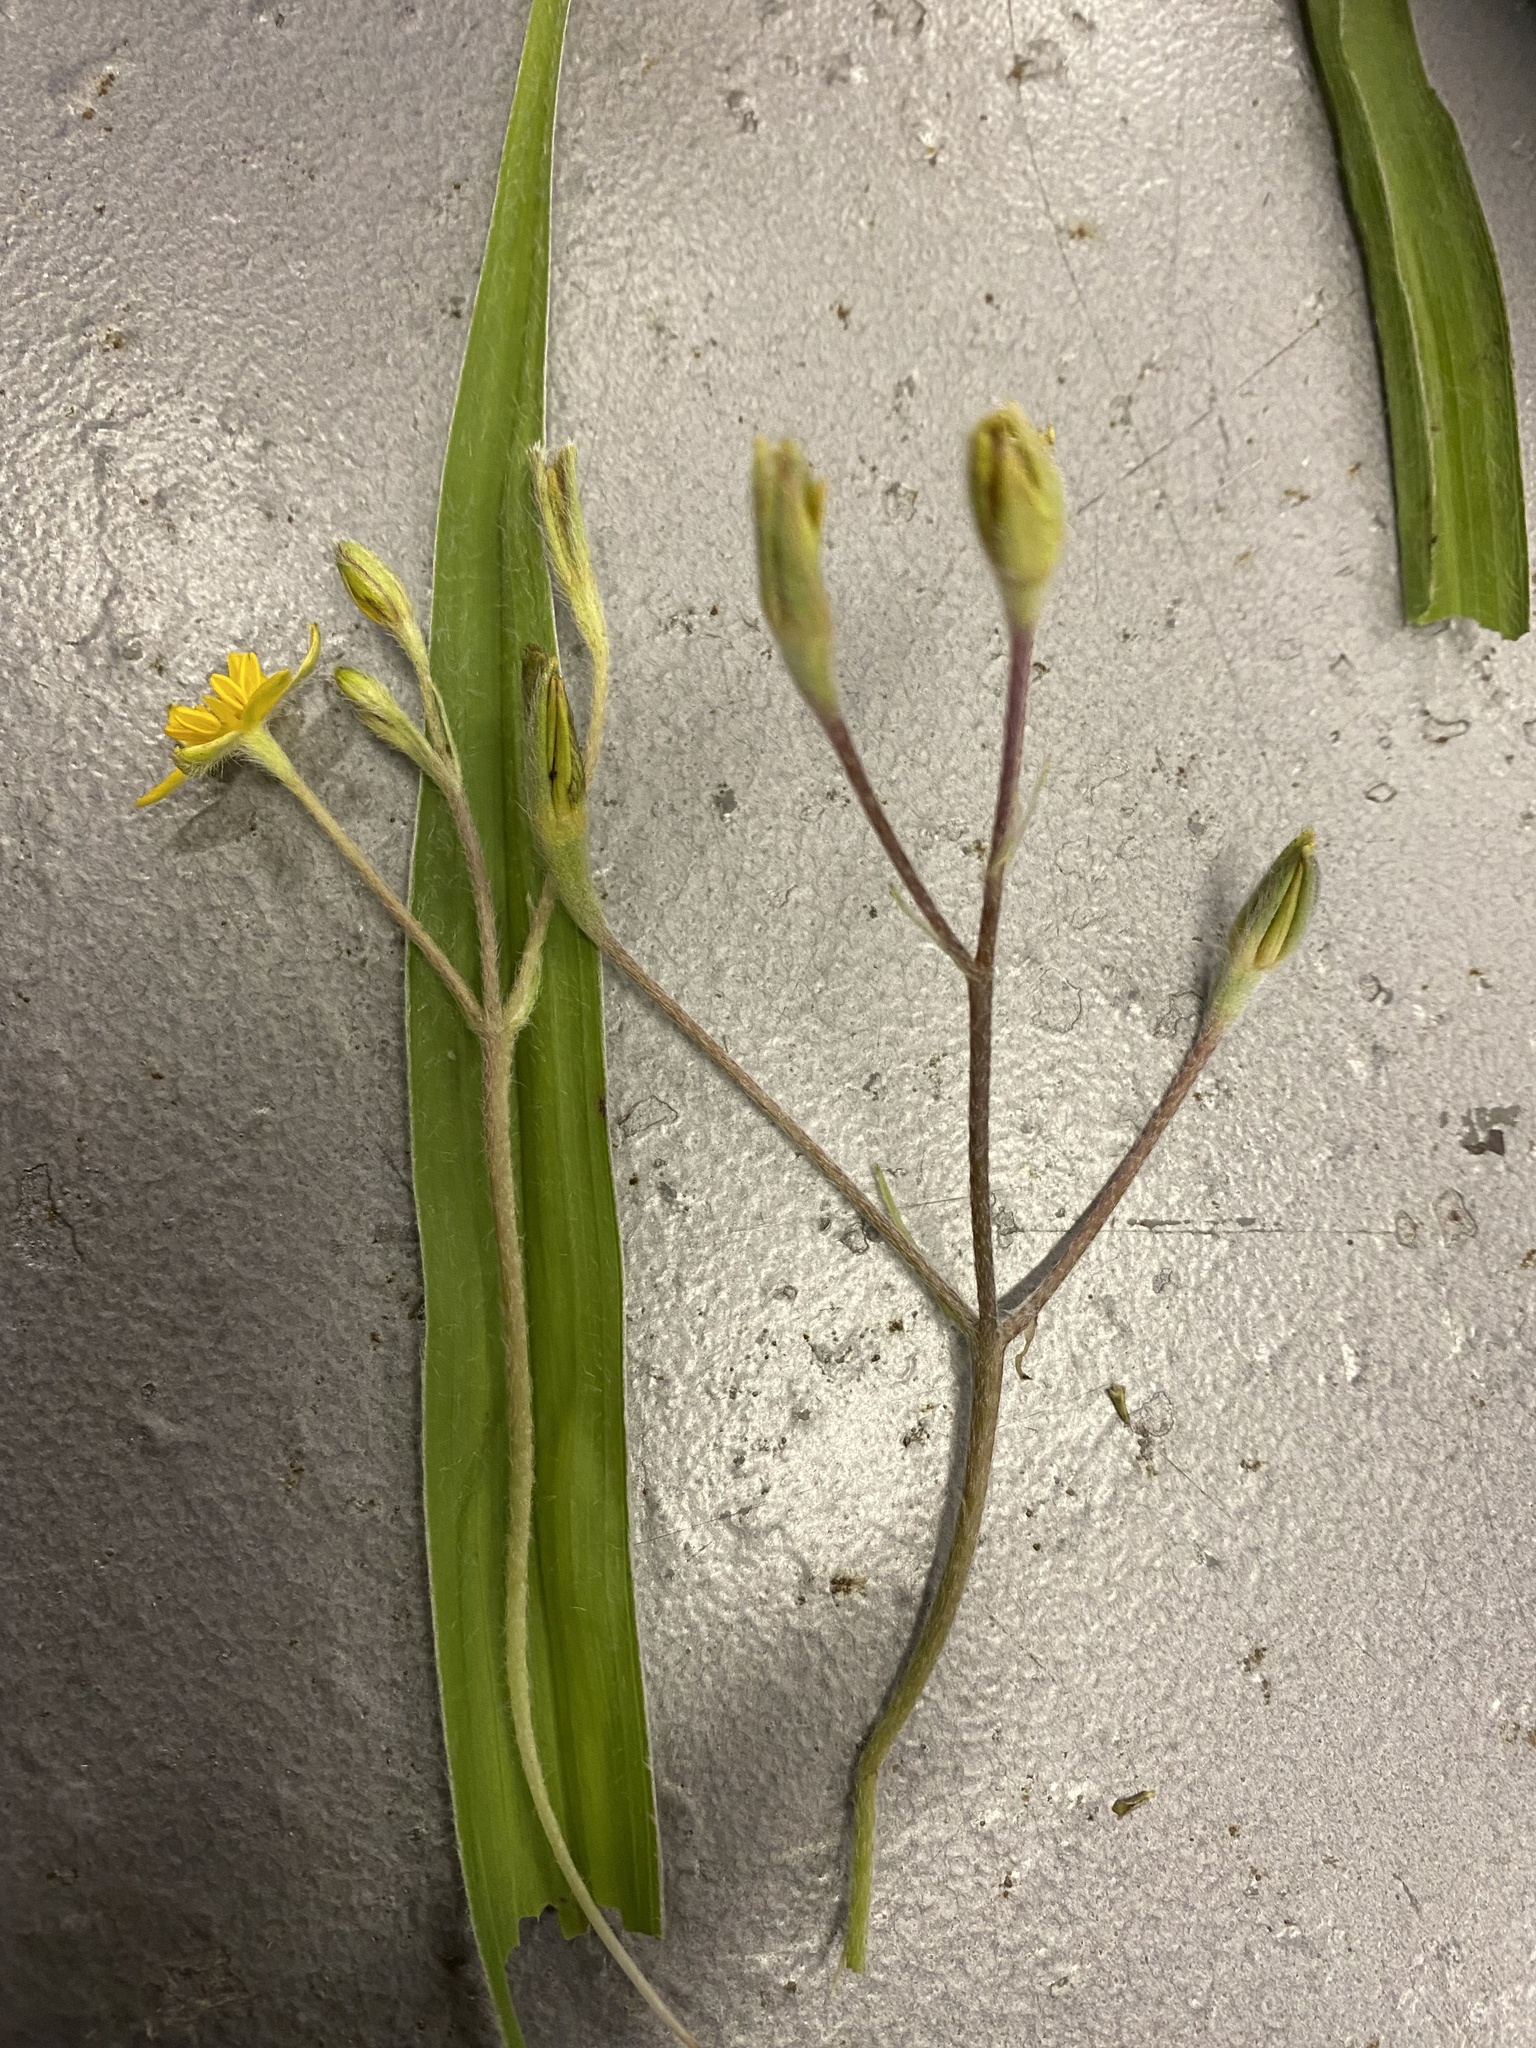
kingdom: Plantae
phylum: Tracheophyta
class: Liliopsida
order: Asparagales
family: Hypoxidaceae
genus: Hypoxis
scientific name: Hypoxis villosa
